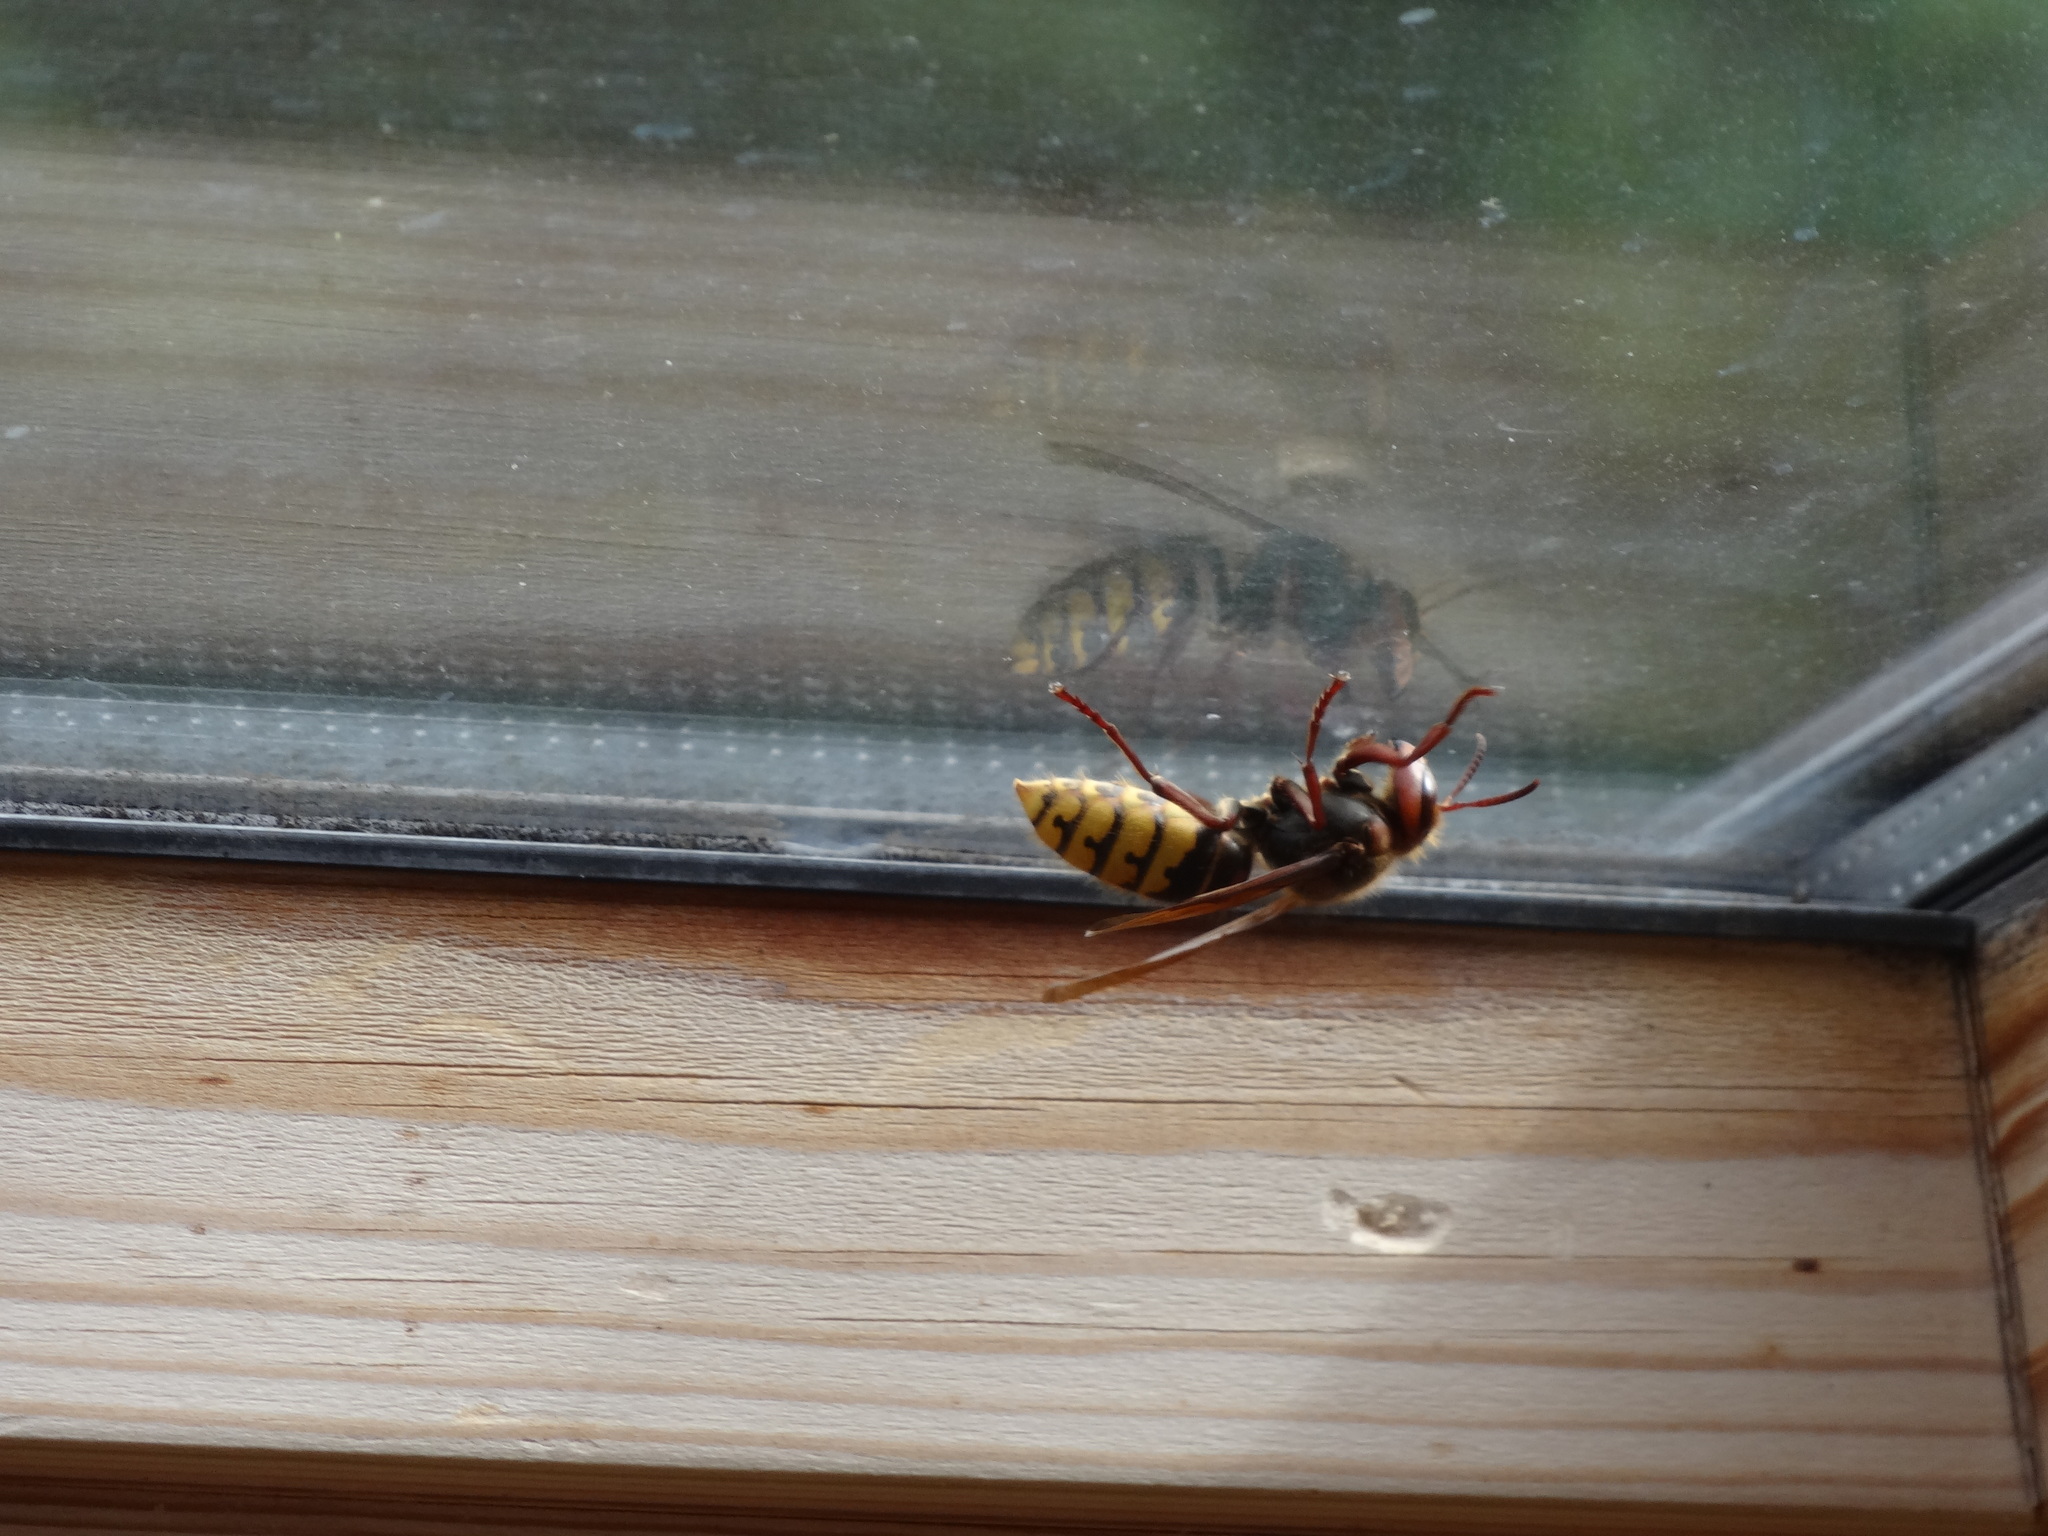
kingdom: Animalia
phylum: Arthropoda
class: Insecta
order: Hymenoptera
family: Vespidae
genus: Vespa
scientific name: Vespa crabro
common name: Hornet
